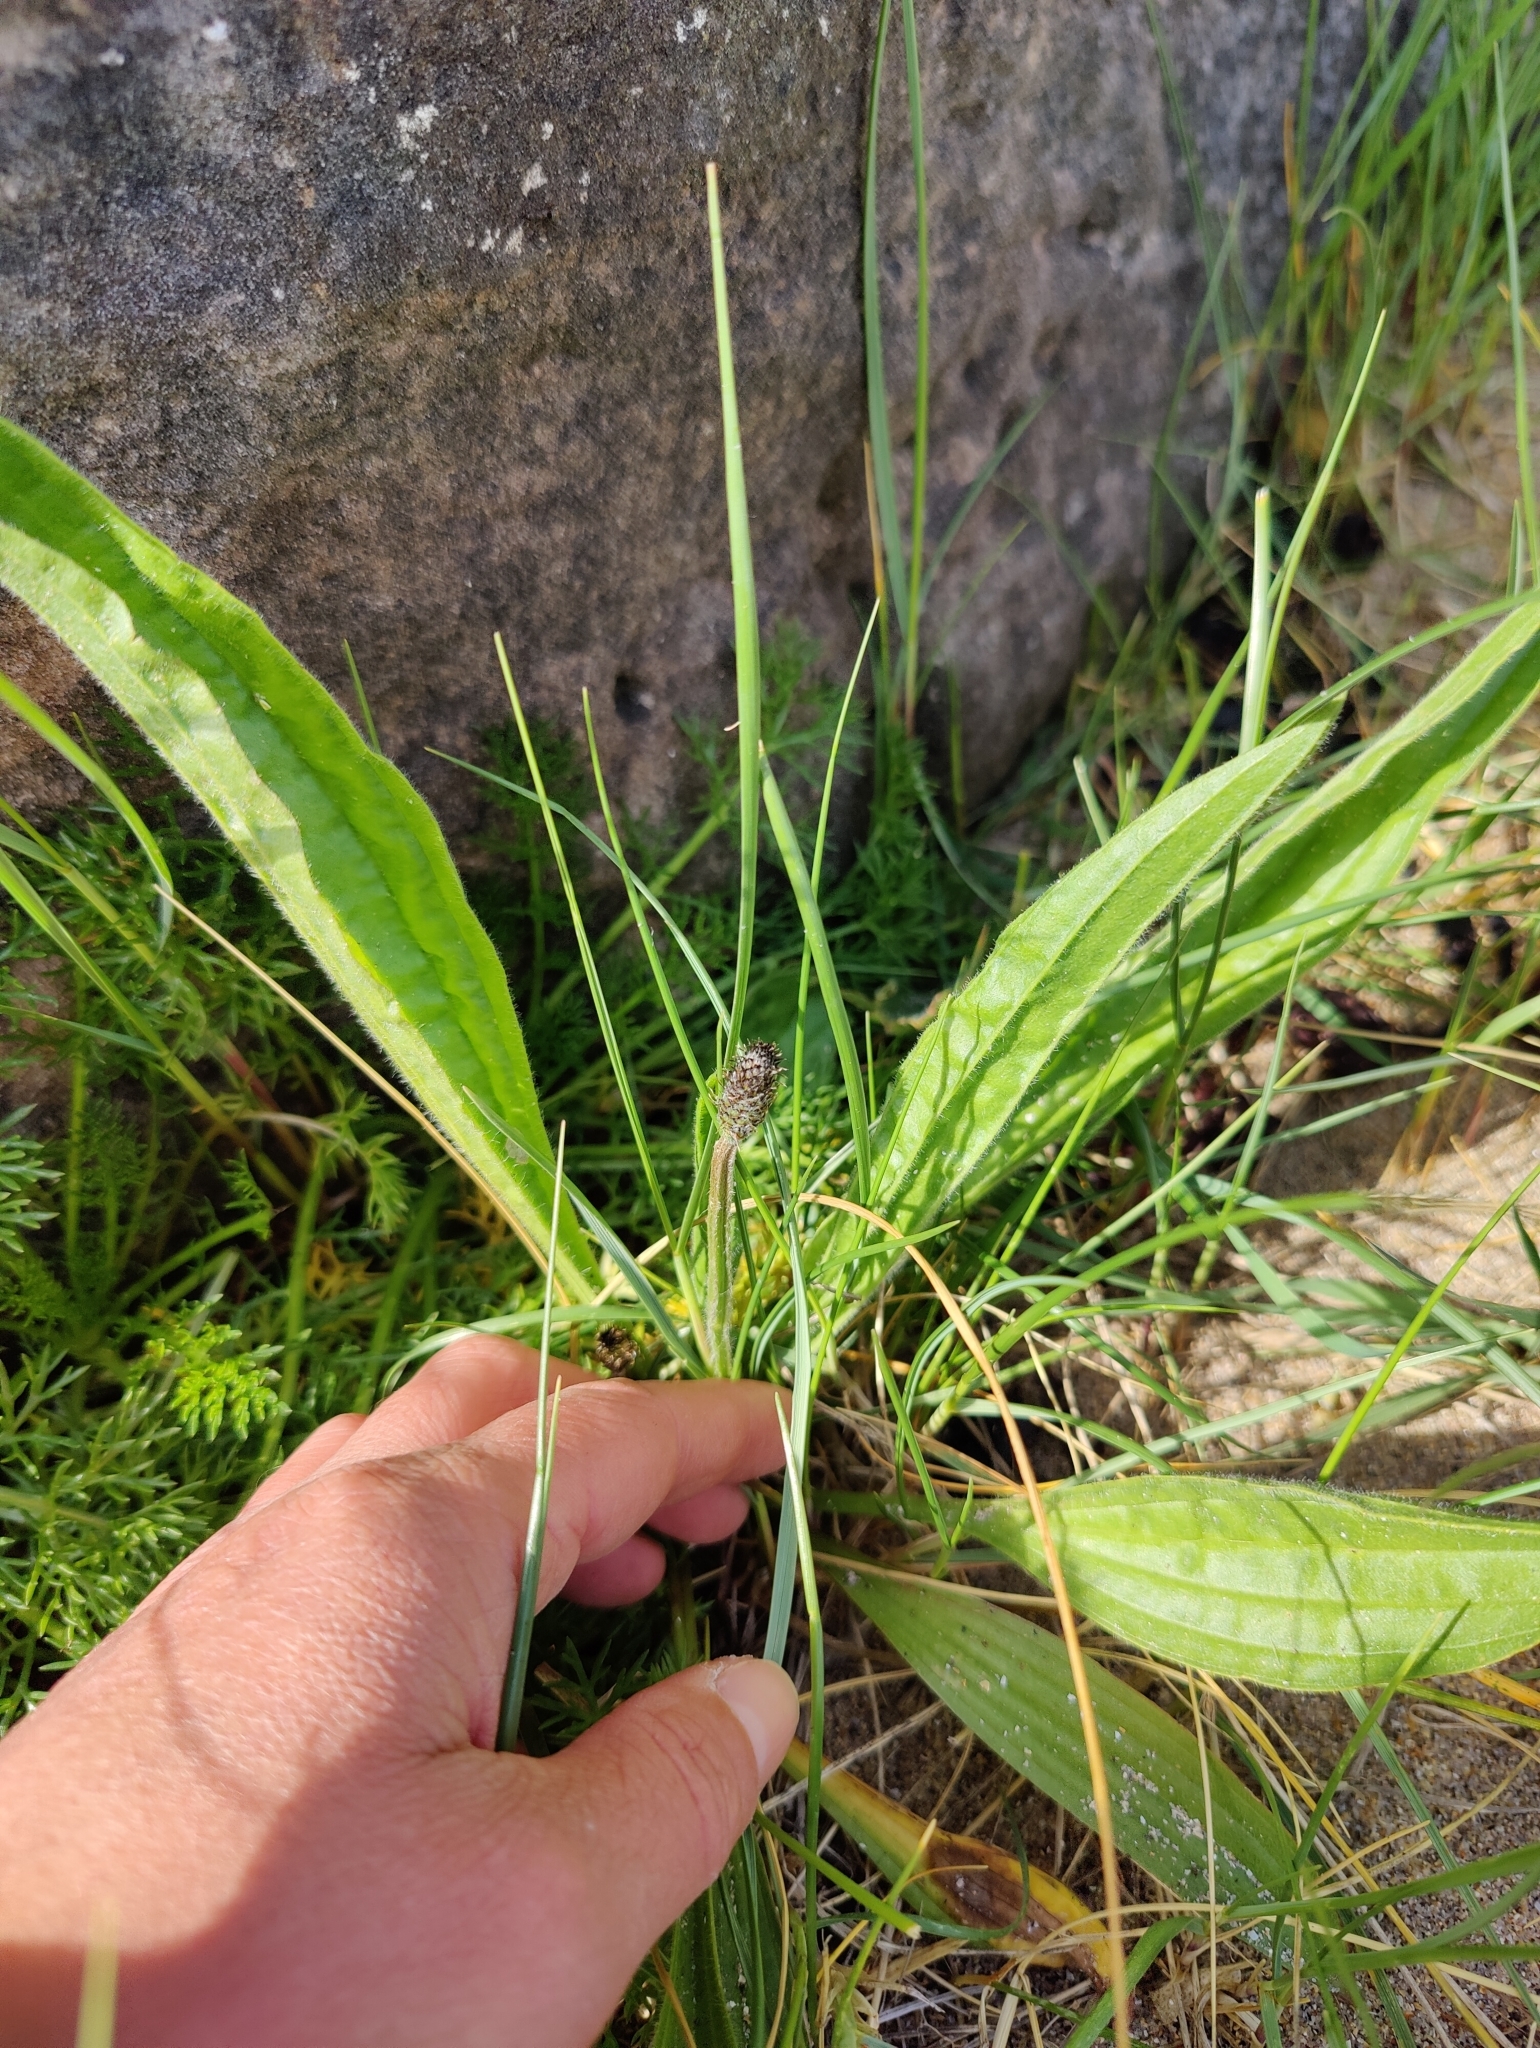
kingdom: Plantae
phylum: Tracheophyta
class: Magnoliopsida
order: Lamiales
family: Plantaginaceae
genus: Plantago
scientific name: Plantago lanceolata
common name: Ribwort plantain
